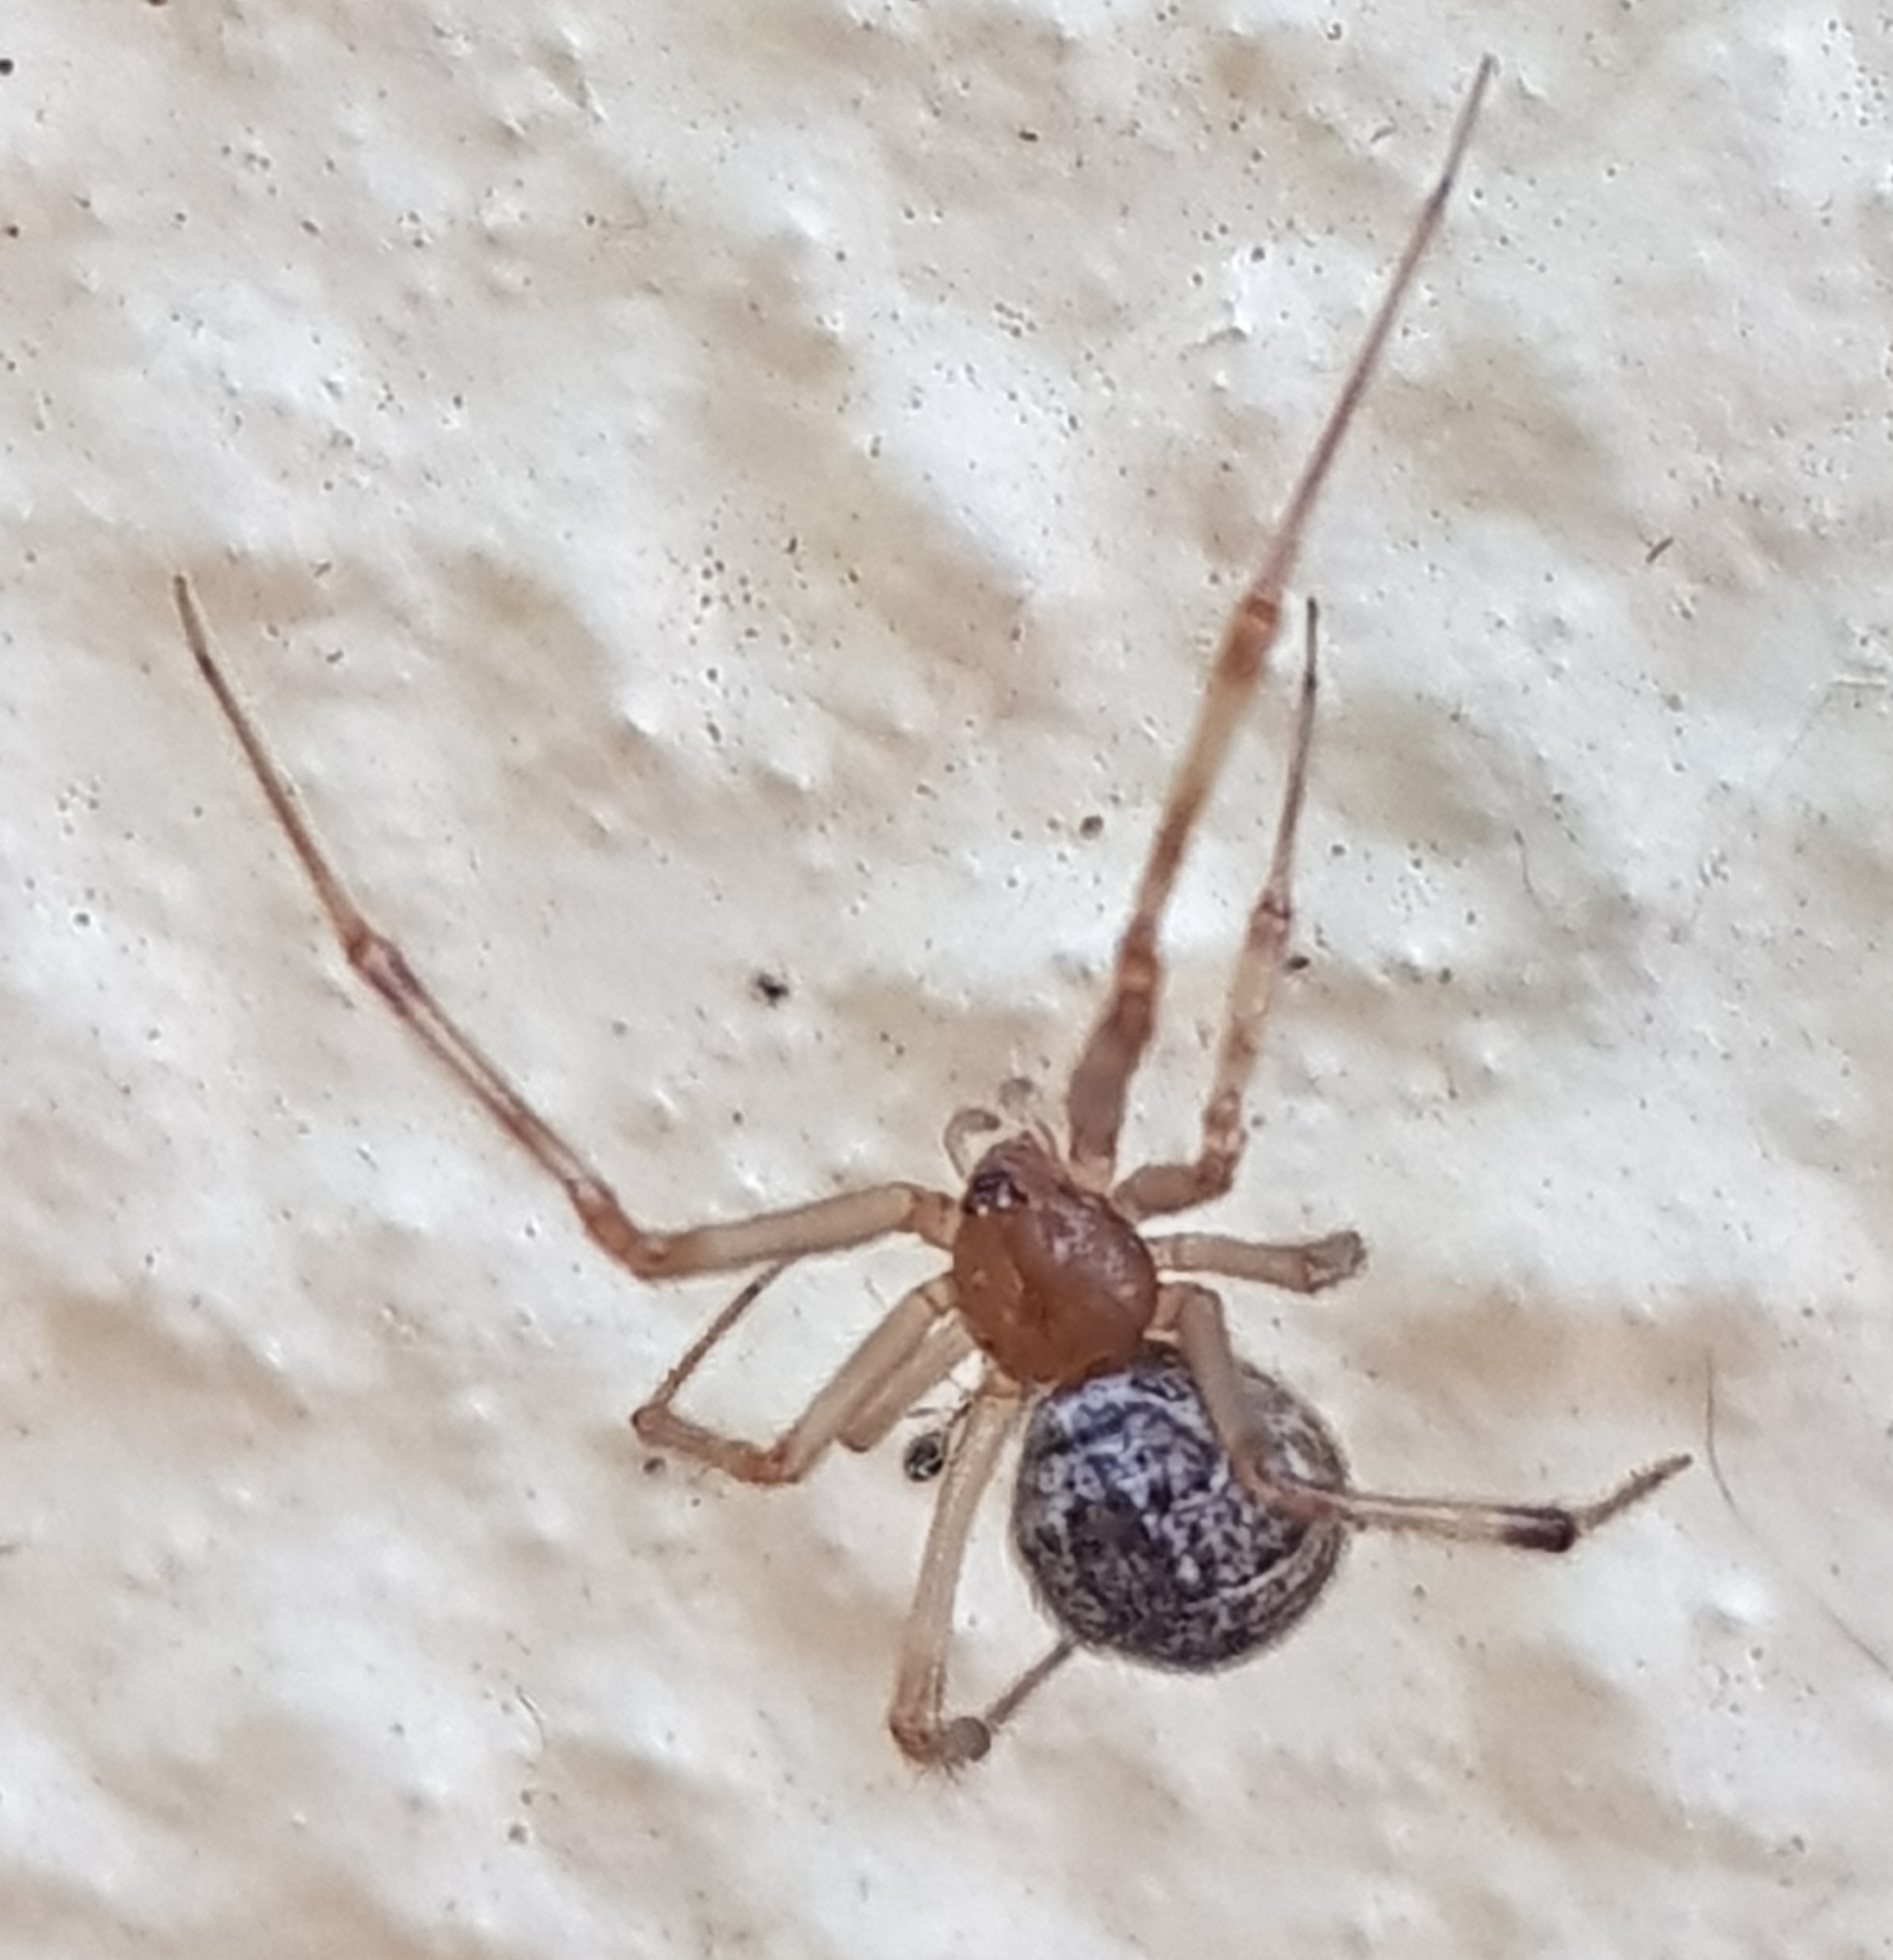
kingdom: Animalia
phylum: Arthropoda
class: Arachnida
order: Araneae
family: Theridiidae
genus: Parasteatoda
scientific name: Parasteatoda tepidariorum
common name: Common house spider
